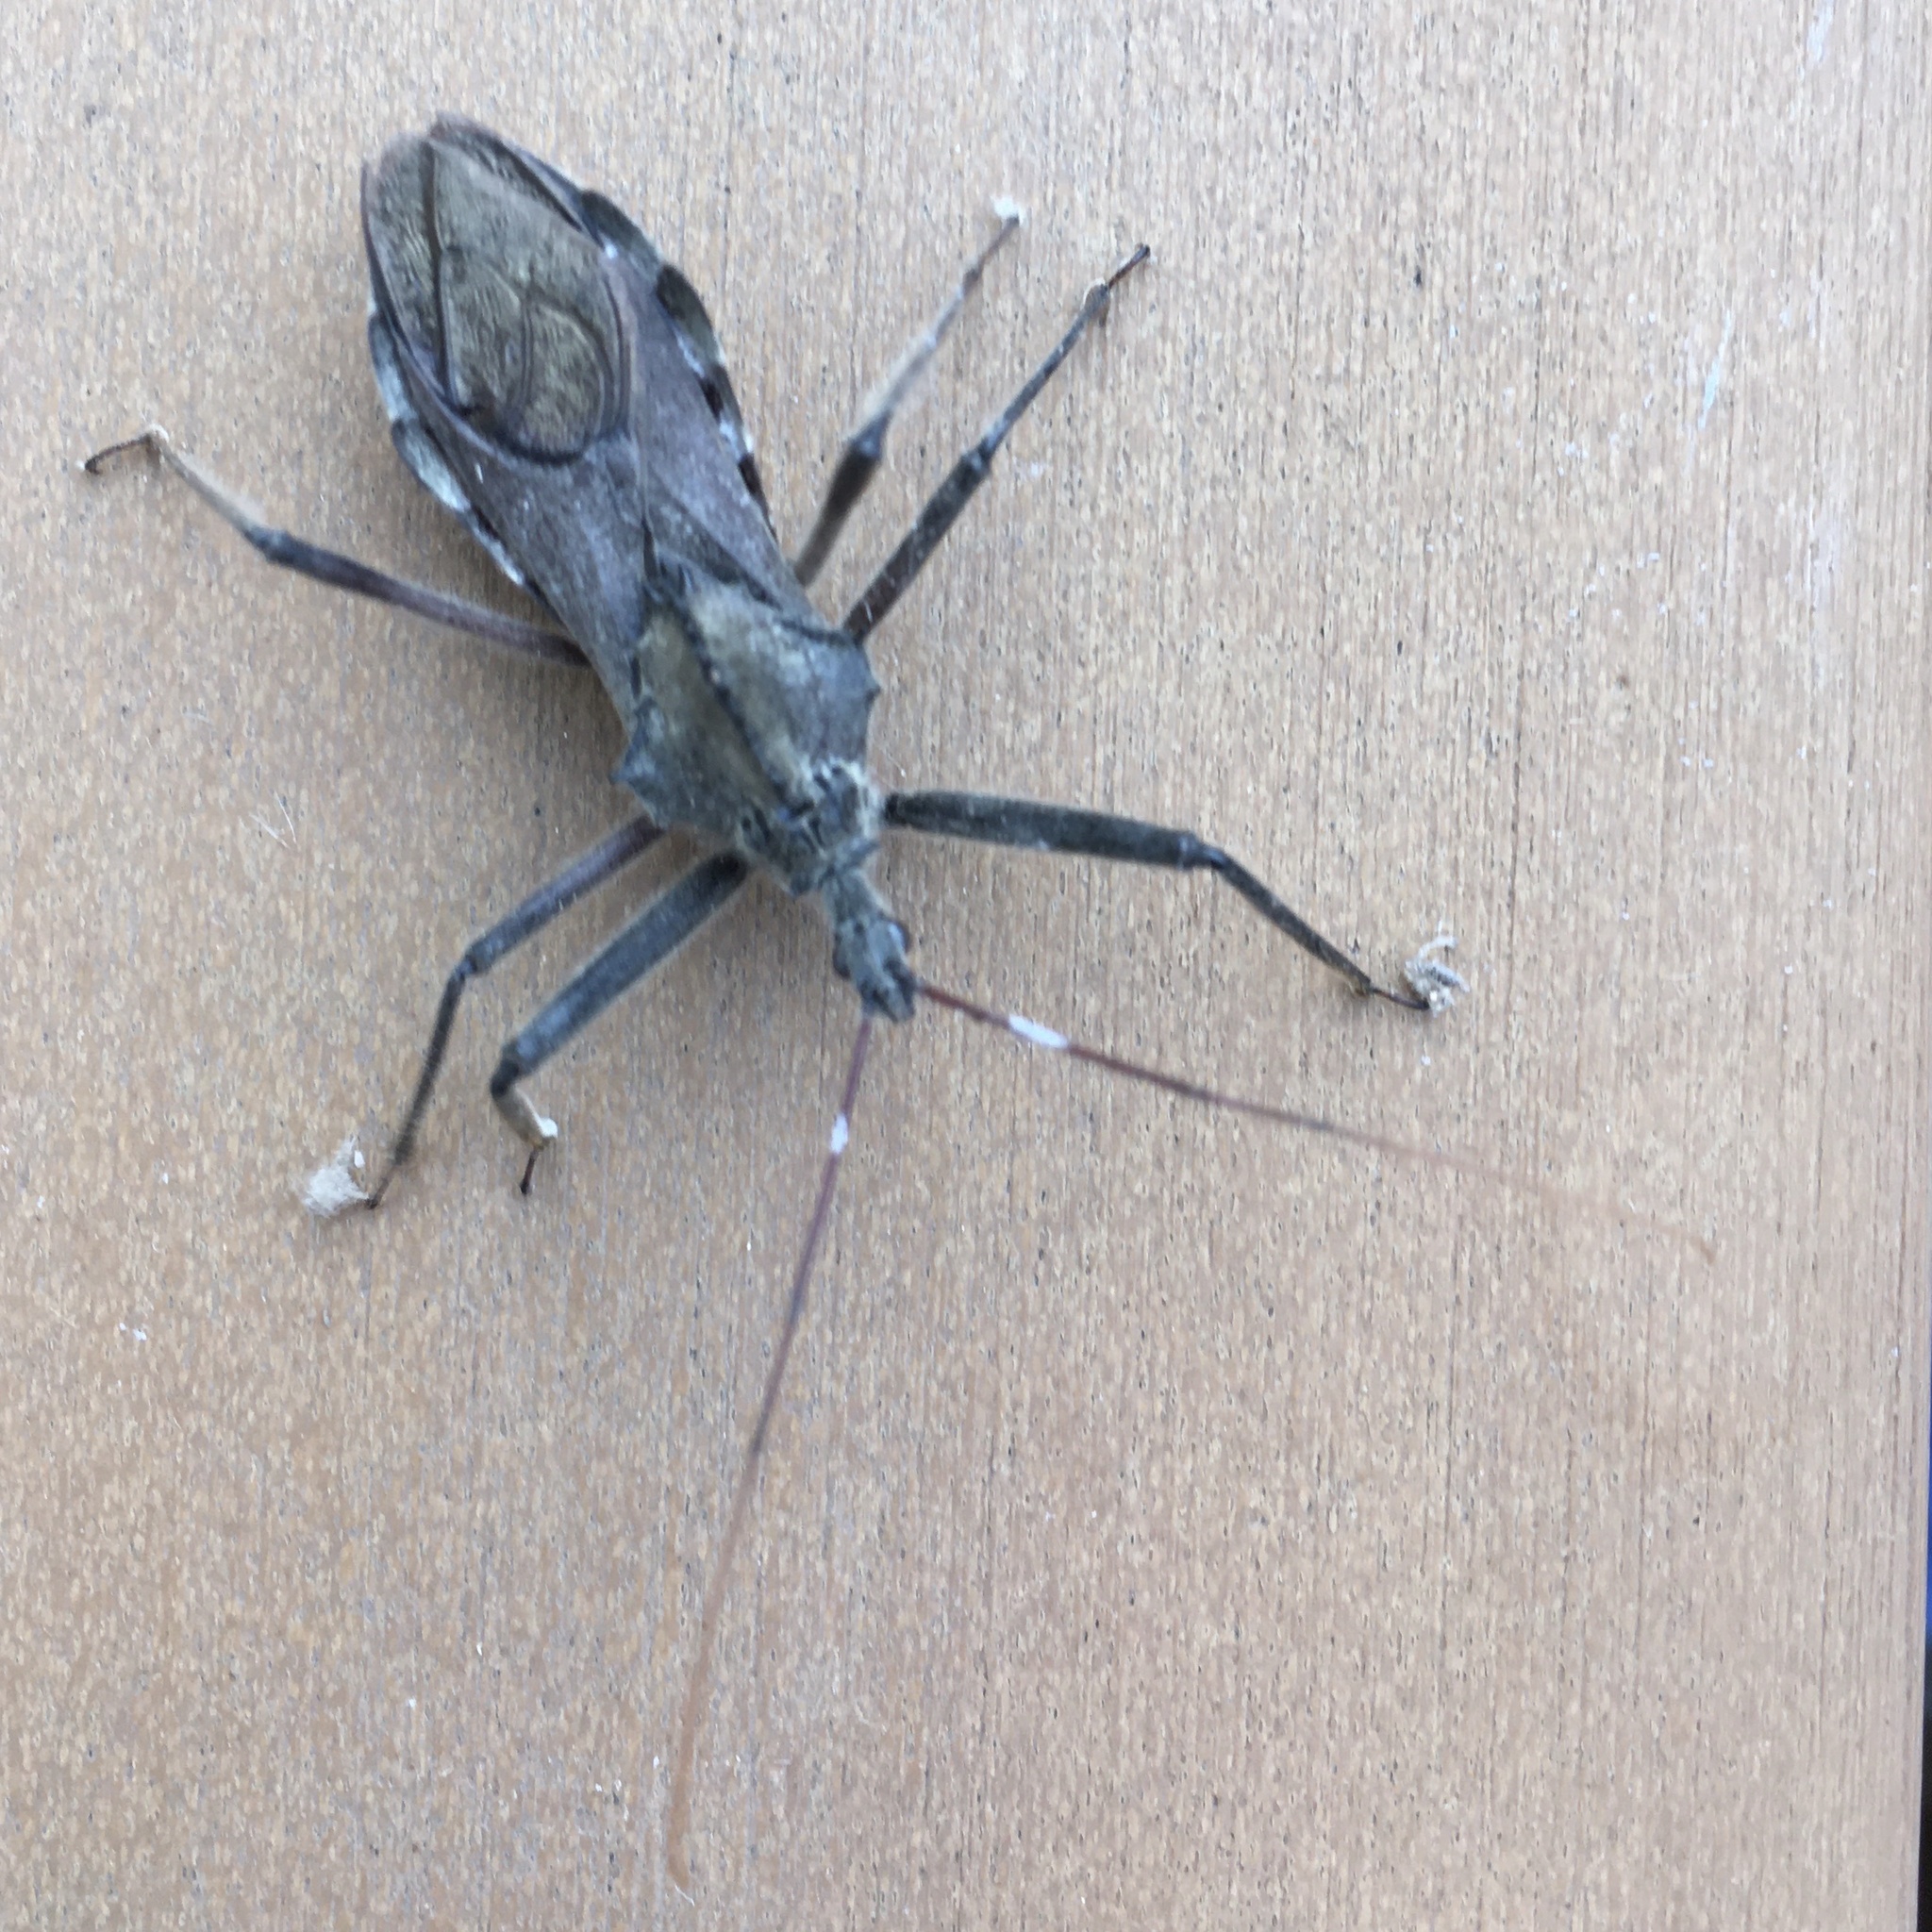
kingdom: Animalia
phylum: Arthropoda
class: Insecta
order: Hemiptera
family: Reduviidae
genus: Arilus
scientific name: Arilus cristatus
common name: North american wheel bug
